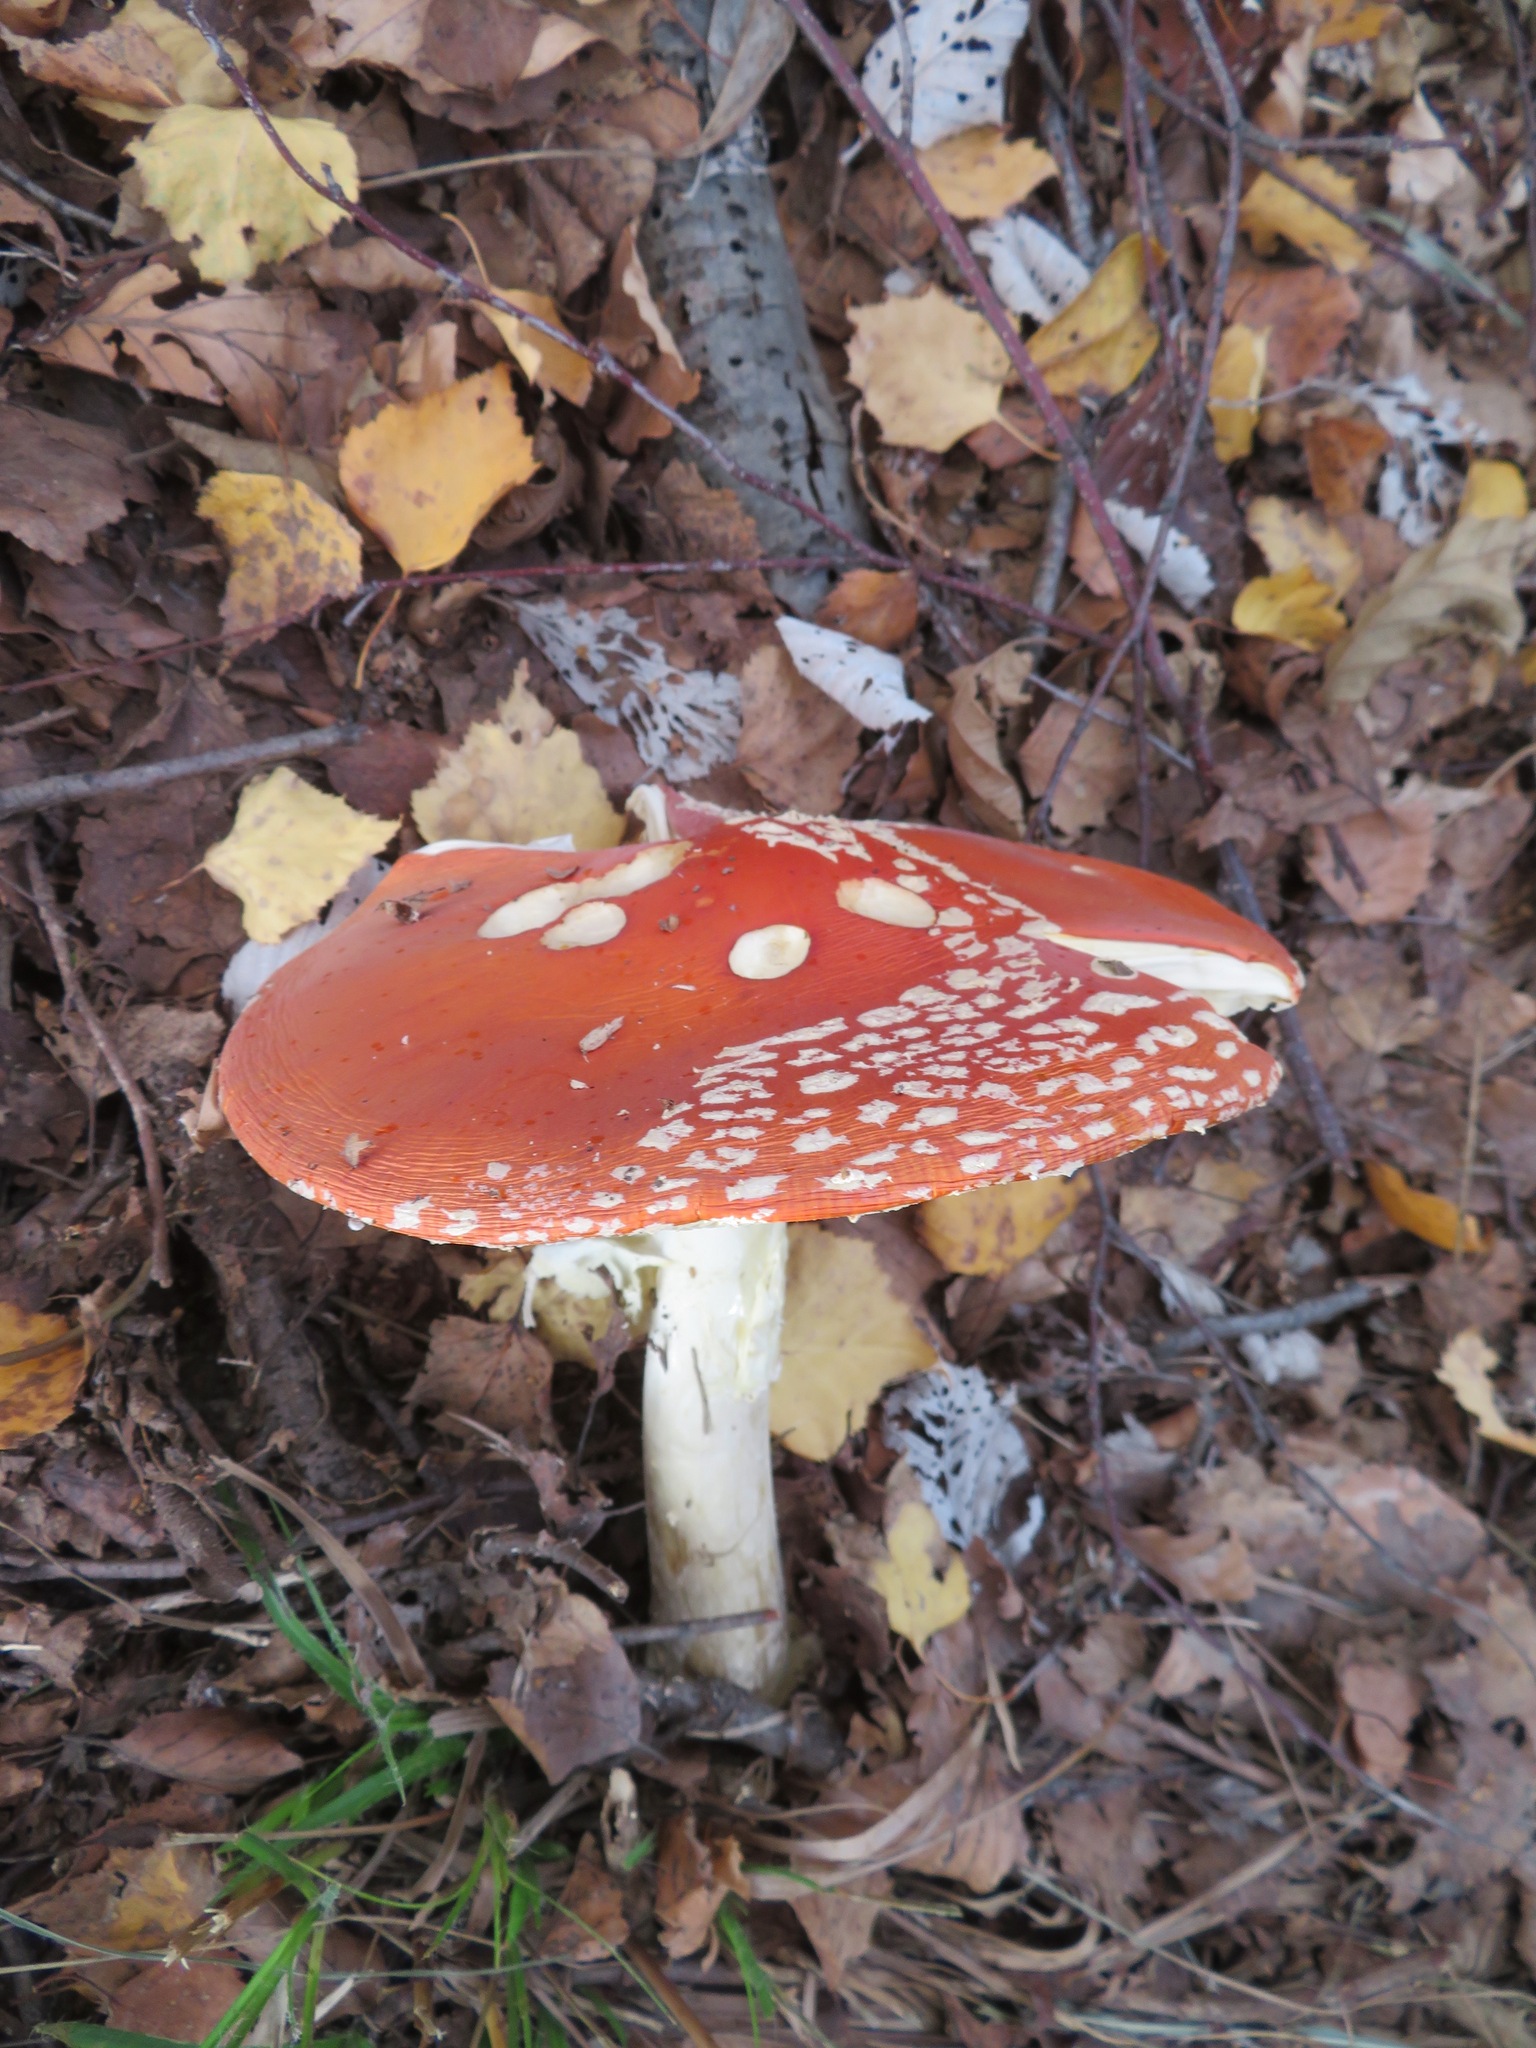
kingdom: Fungi
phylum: Basidiomycota
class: Agaricomycetes
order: Agaricales
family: Amanitaceae
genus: Amanita
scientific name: Amanita muscaria
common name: Fly agaric
